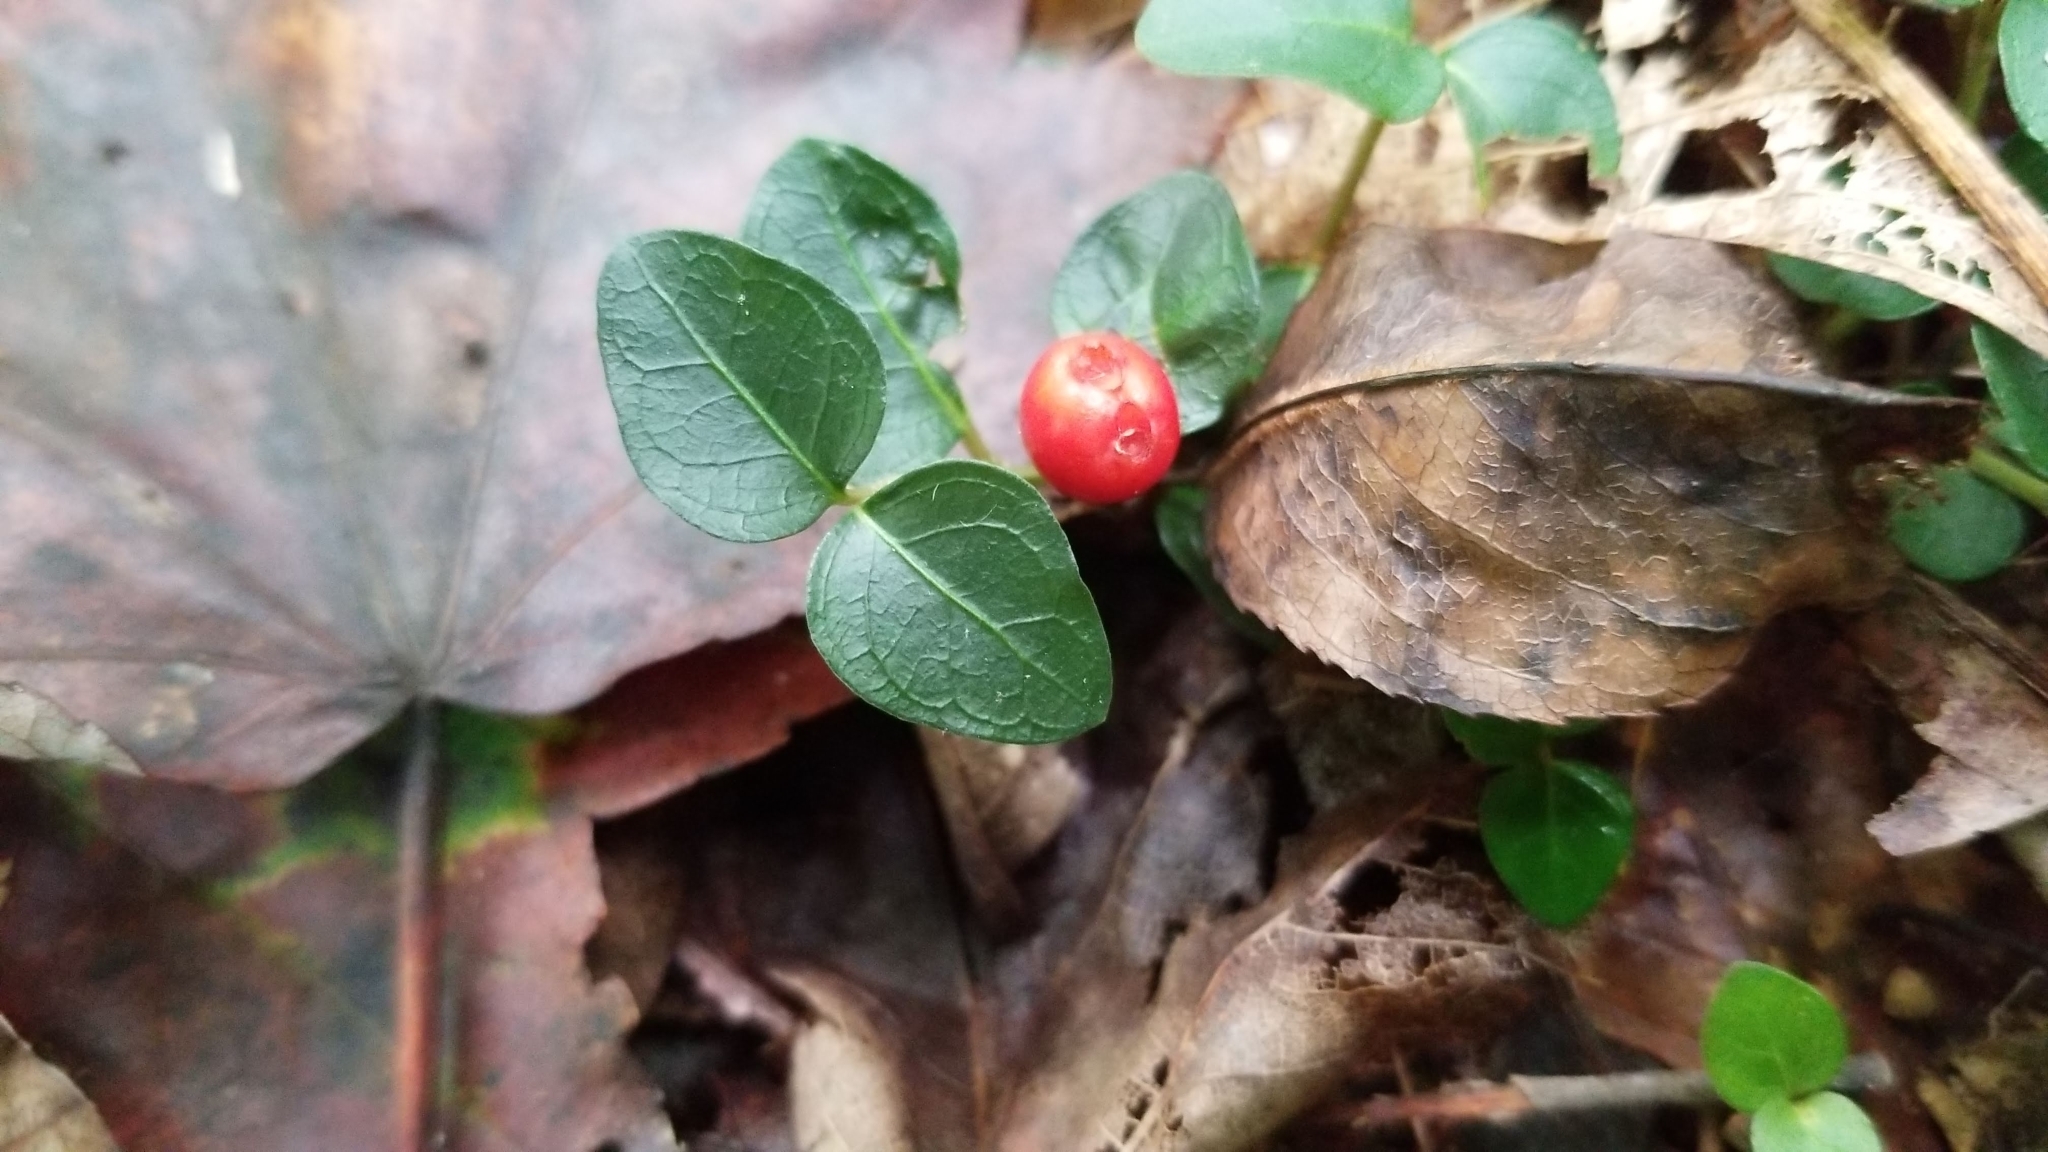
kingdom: Plantae
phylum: Tracheophyta
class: Magnoliopsida
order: Gentianales
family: Rubiaceae
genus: Mitchella
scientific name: Mitchella repens
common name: Partridge-berry
